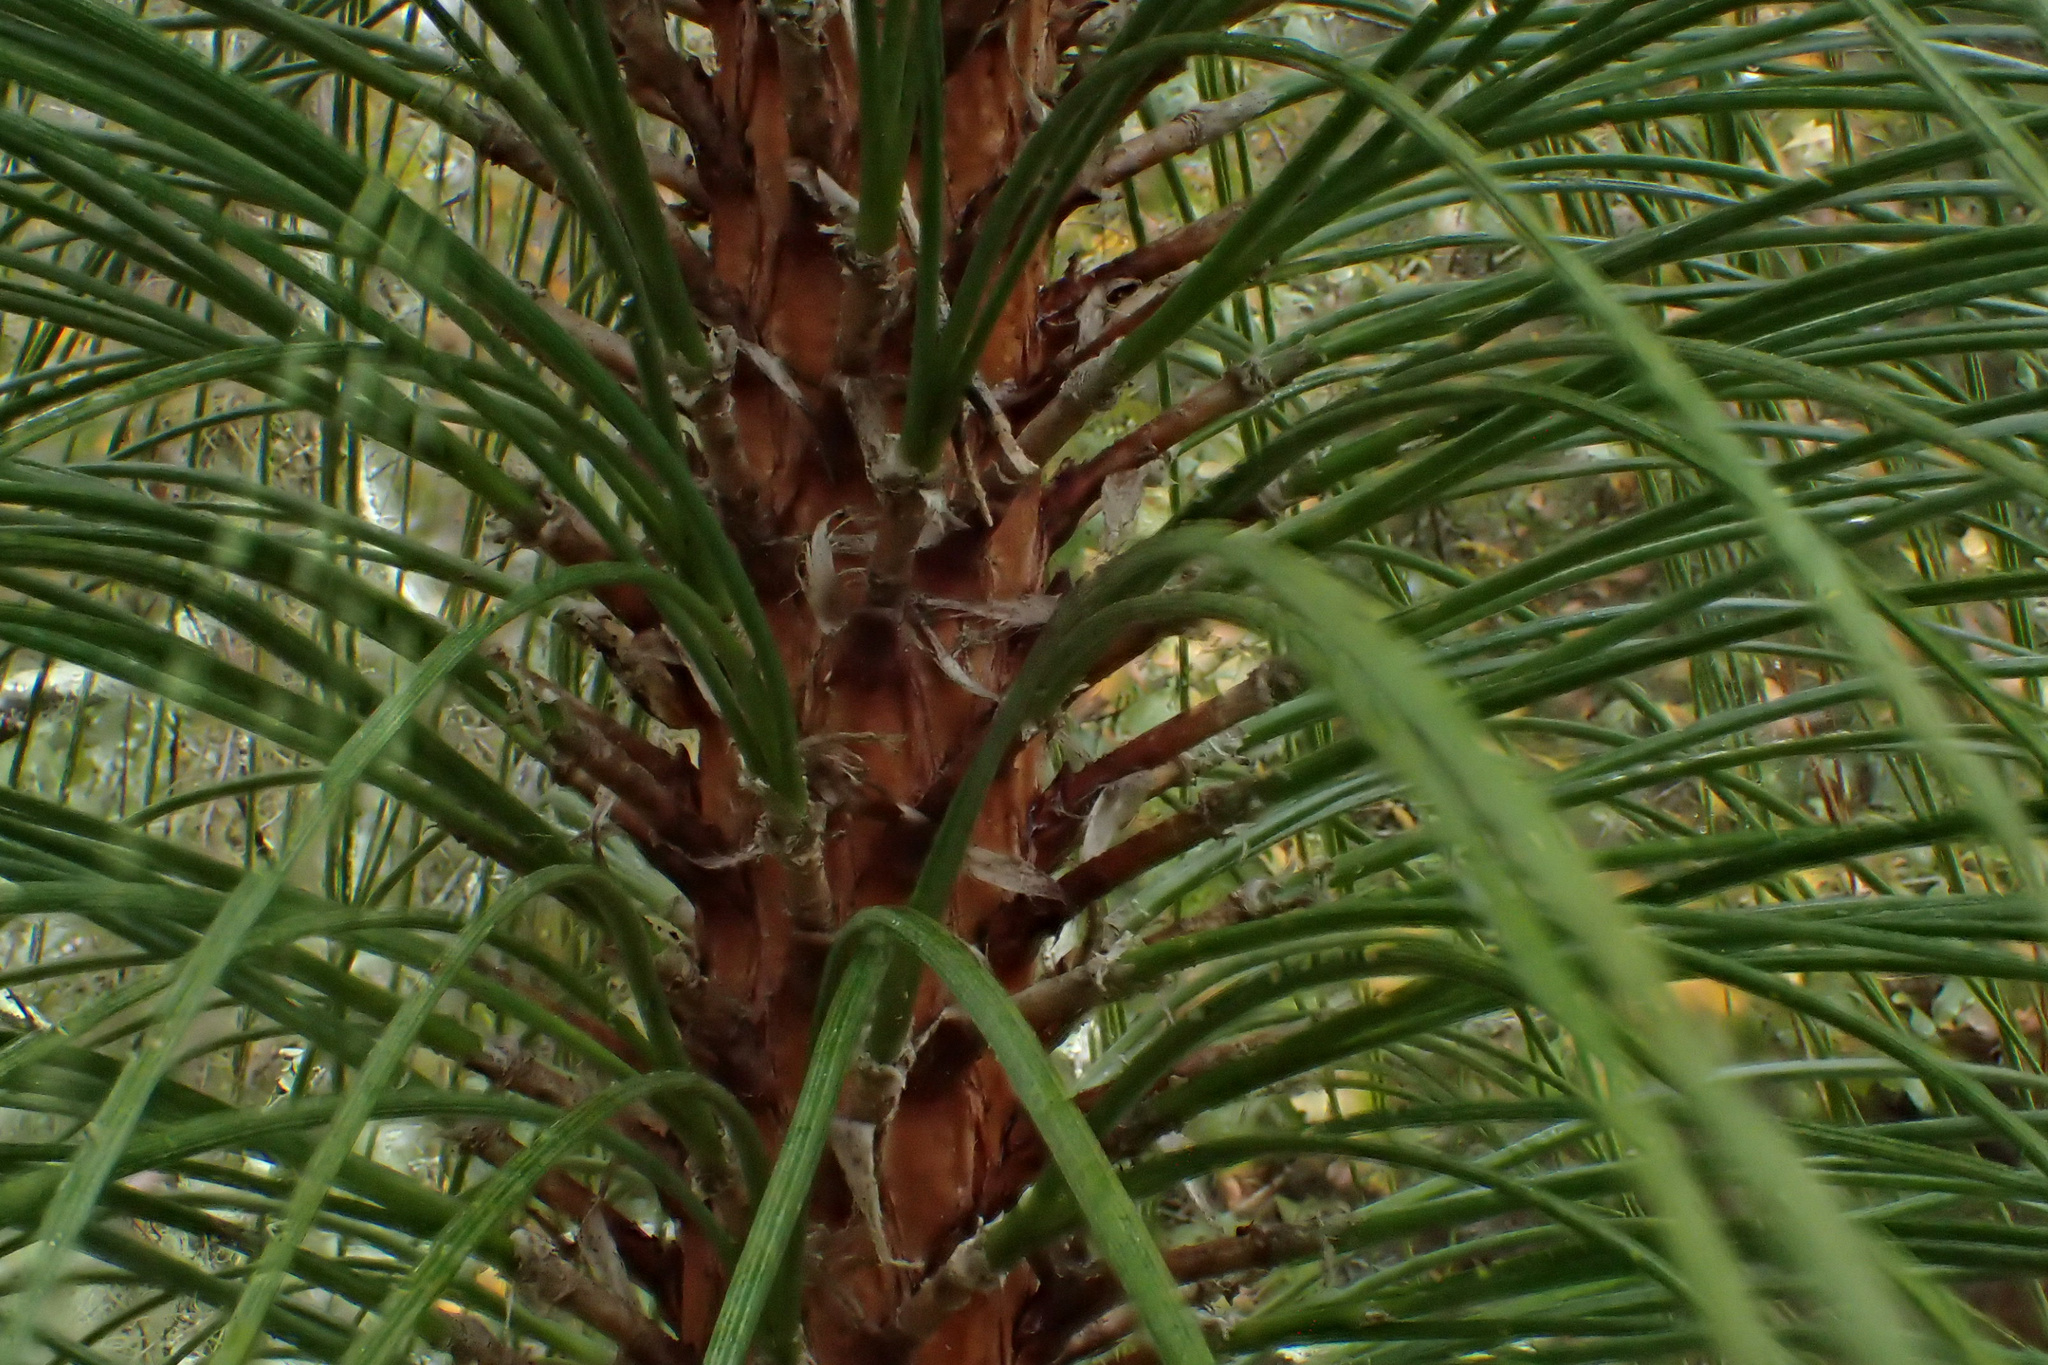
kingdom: Plantae
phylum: Tracheophyta
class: Pinopsida
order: Pinales
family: Pinaceae
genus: Pinus
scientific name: Pinus palustris
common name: Longleaf pine
